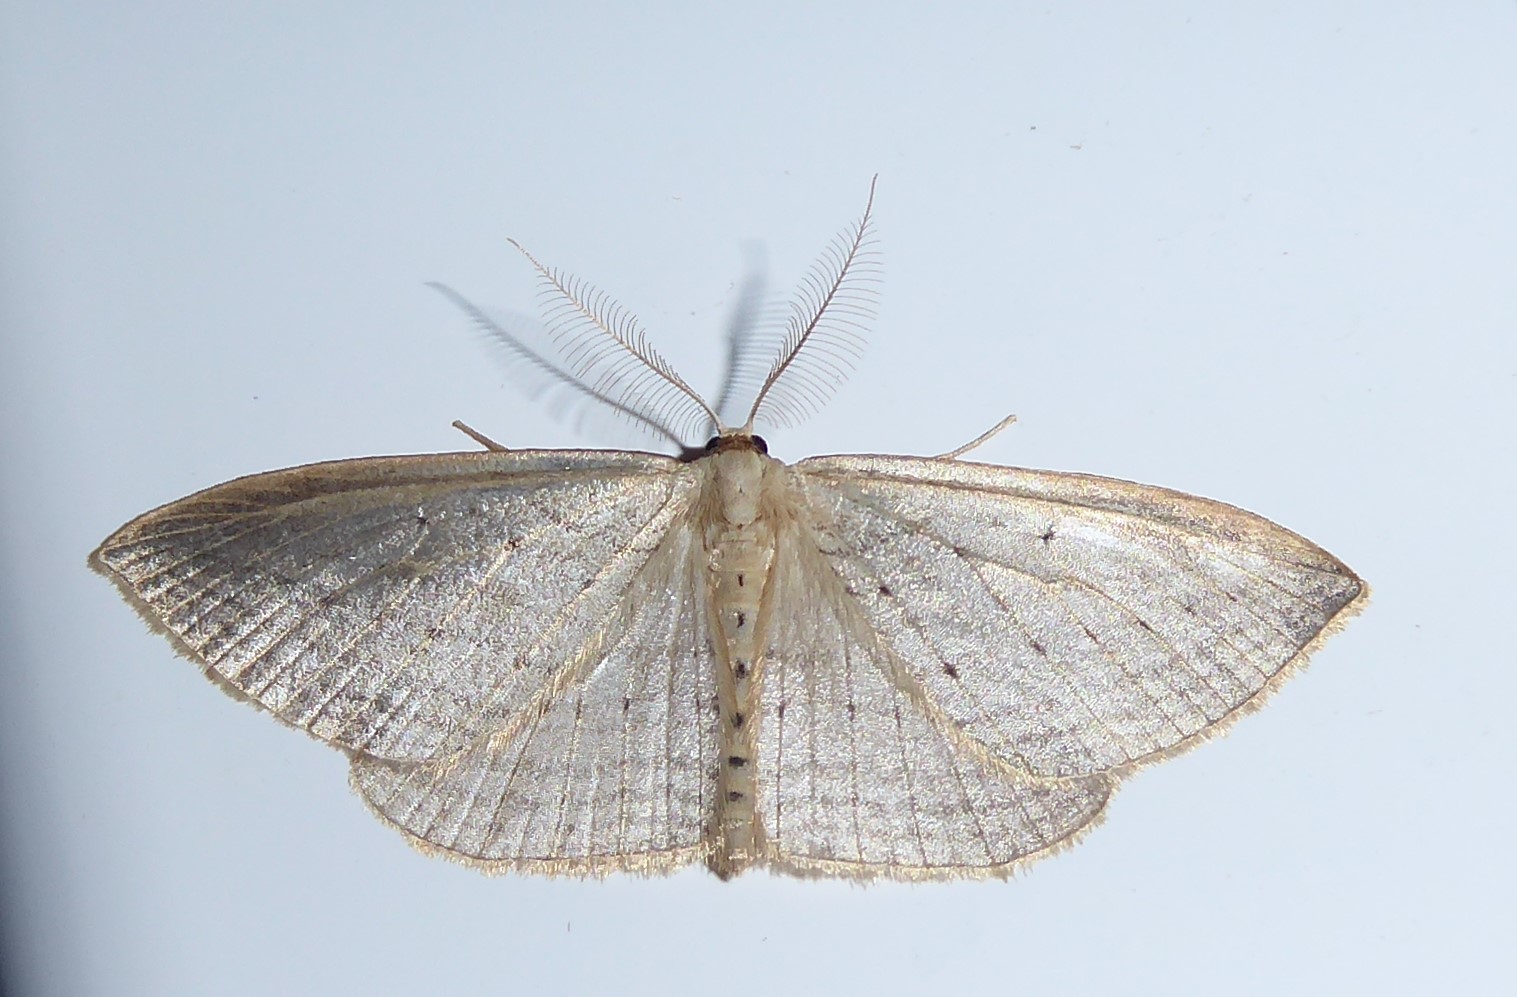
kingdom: Animalia
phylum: Arthropoda
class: Insecta
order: Lepidoptera
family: Geometridae
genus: Orthoclydon
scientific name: Orthoclydon praefectata
